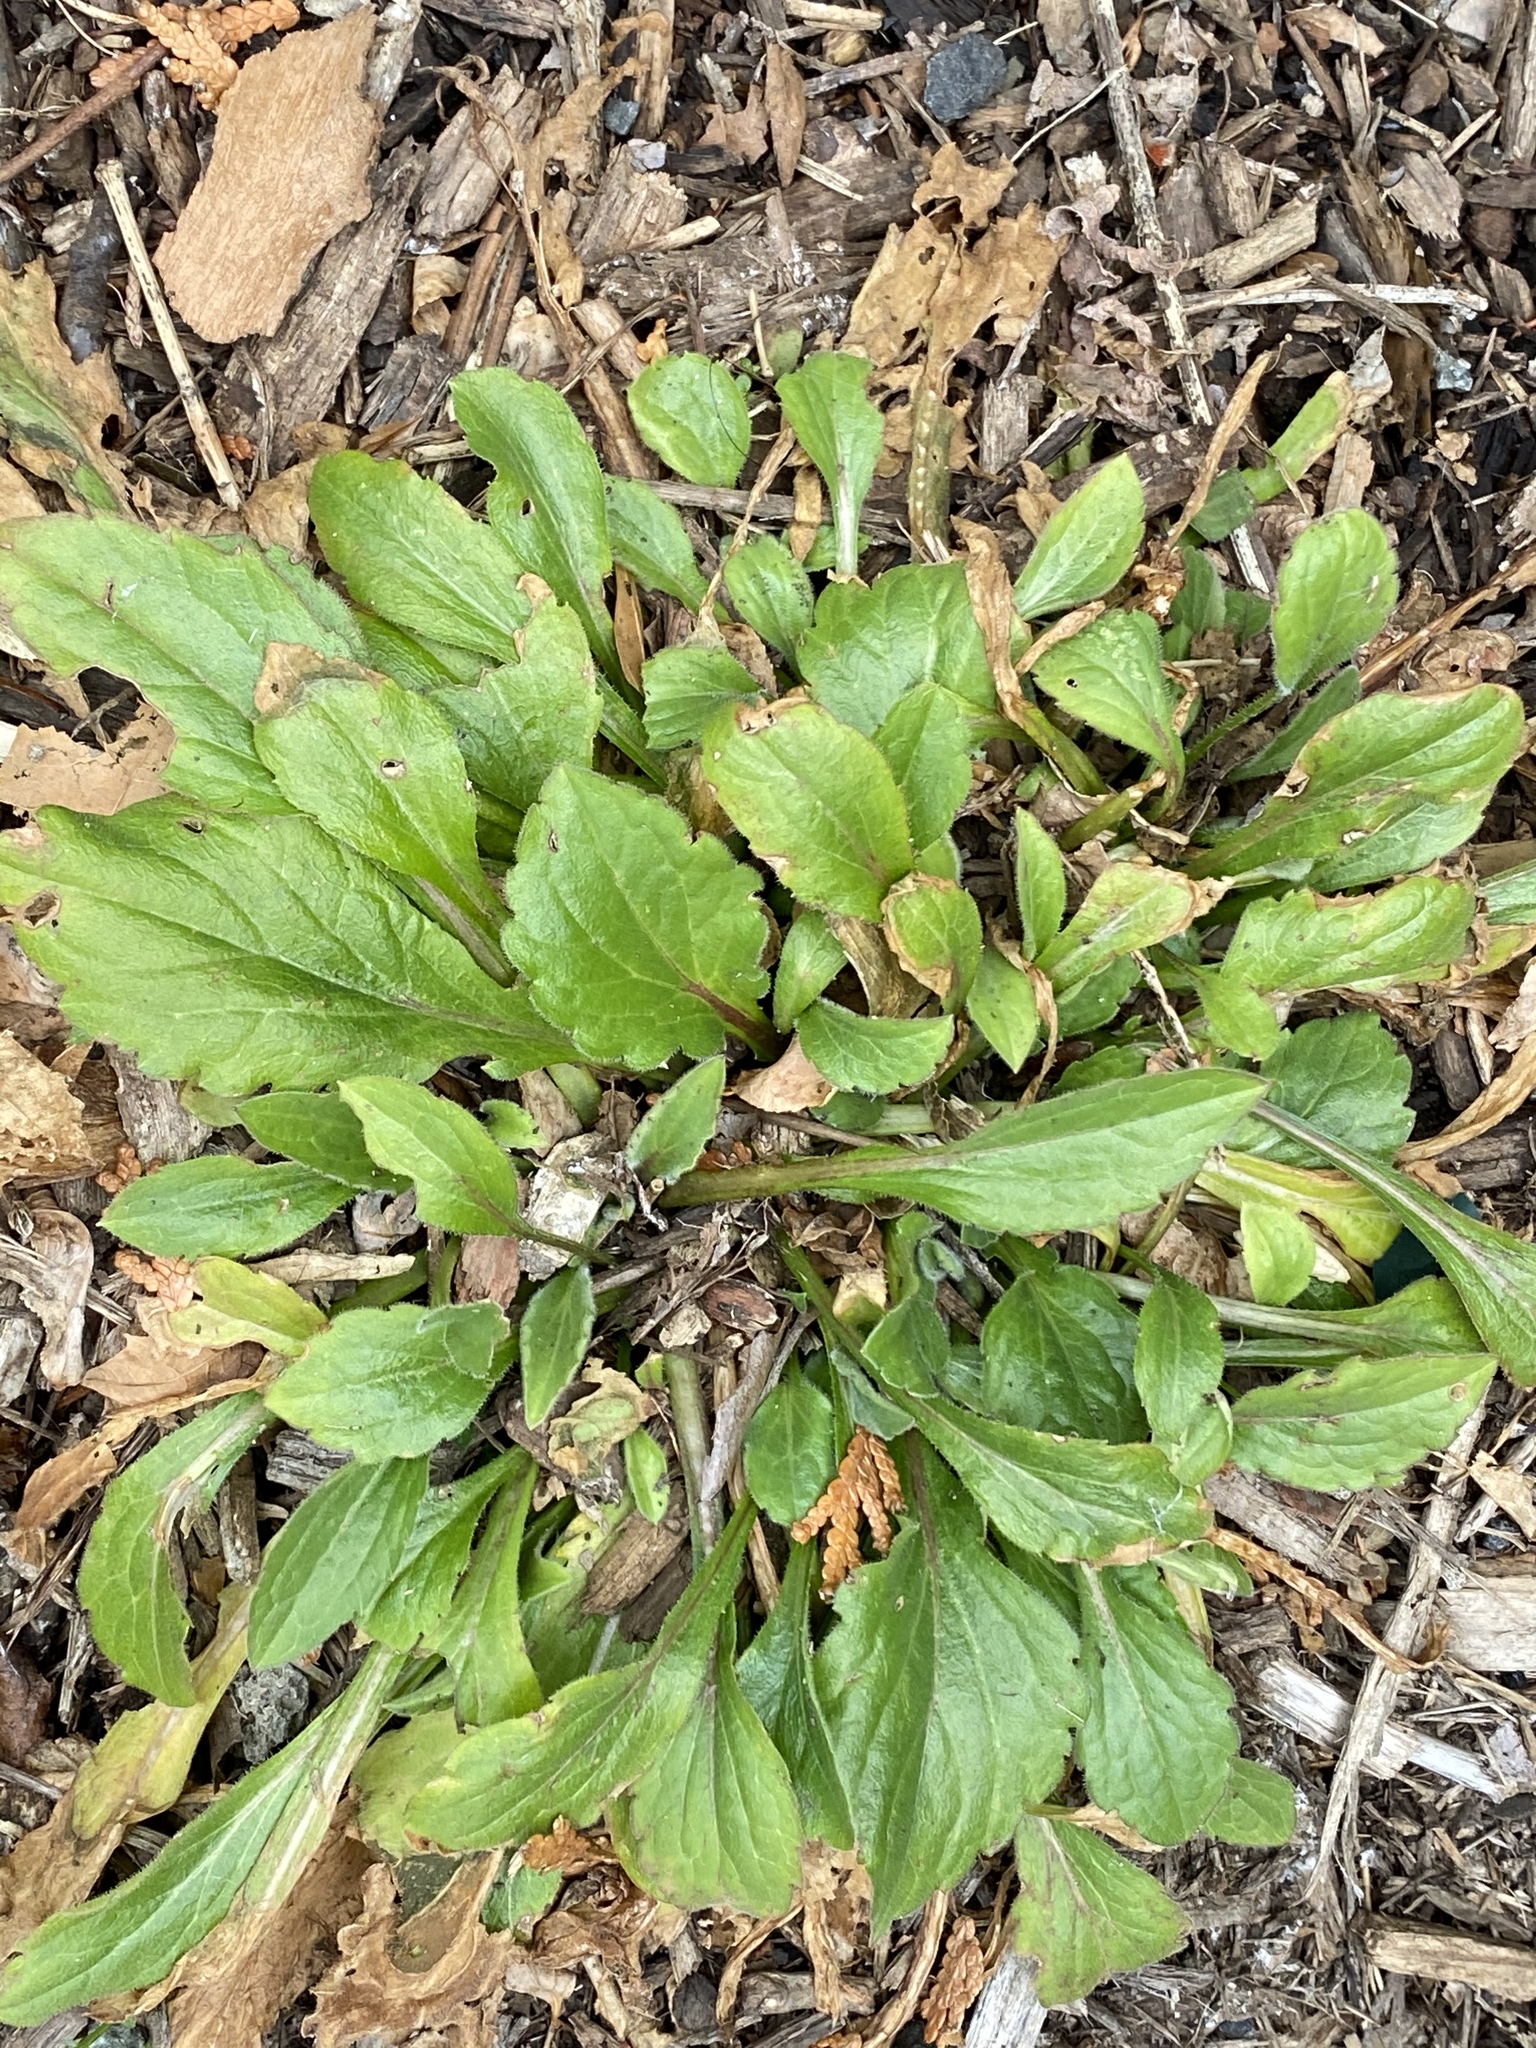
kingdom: Plantae
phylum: Tracheophyta
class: Magnoliopsida
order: Asterales
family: Asteraceae
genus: Erigeron
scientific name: Erigeron canadensis
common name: Canadian fleabane
